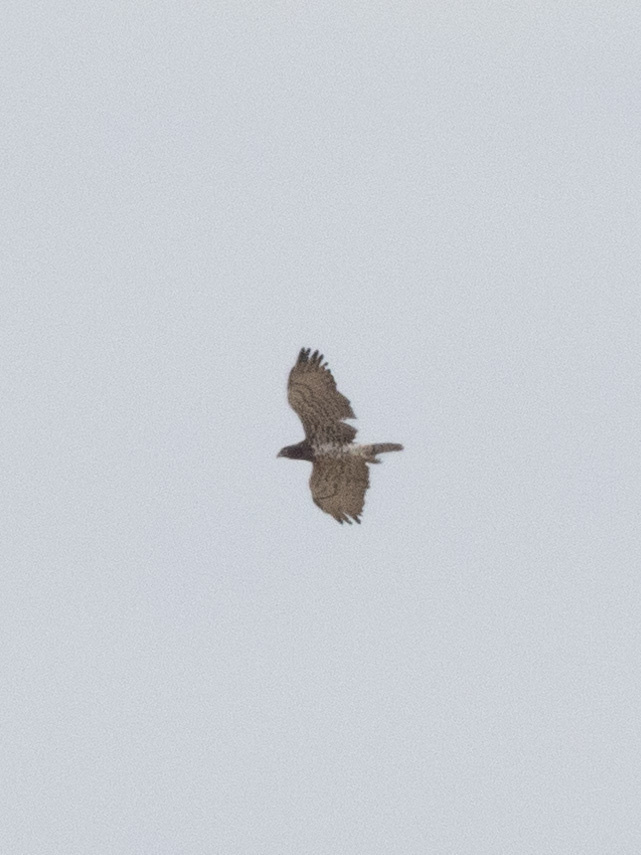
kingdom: Animalia
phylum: Chordata
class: Aves
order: Accipitriformes
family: Accipitridae
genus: Circaetus
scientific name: Circaetus gallicus
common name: Short-toed snake eagle
